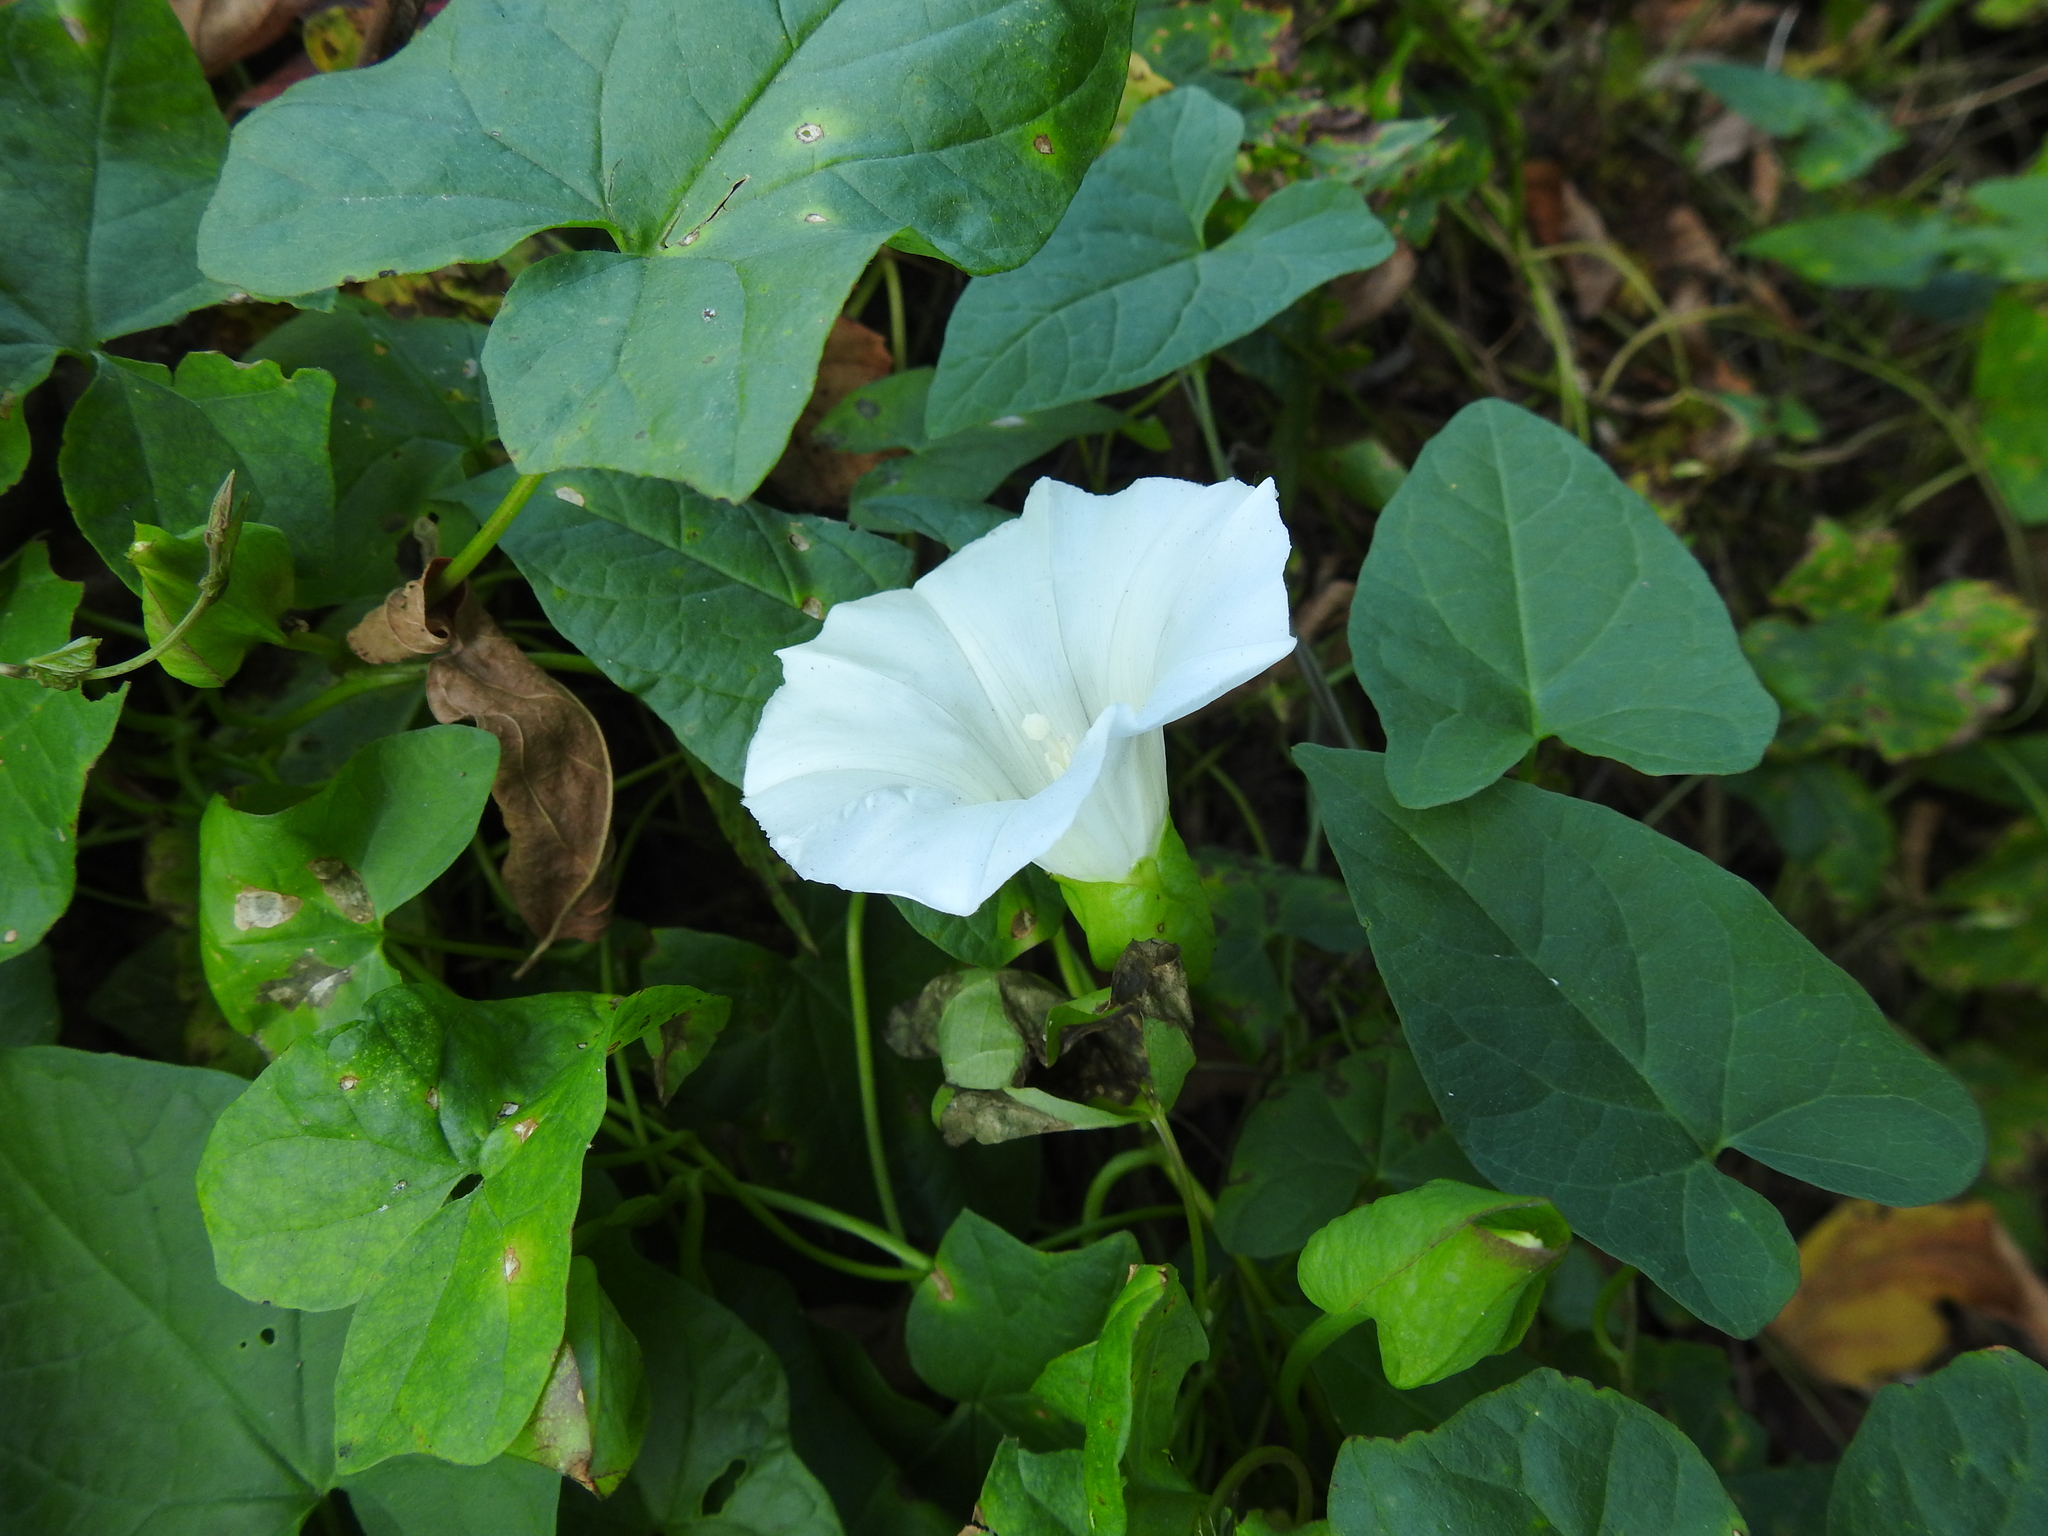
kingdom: Plantae
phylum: Tracheophyta
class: Magnoliopsida
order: Solanales
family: Convolvulaceae
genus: Calystegia
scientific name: Calystegia sepium
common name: Hedge bindweed
